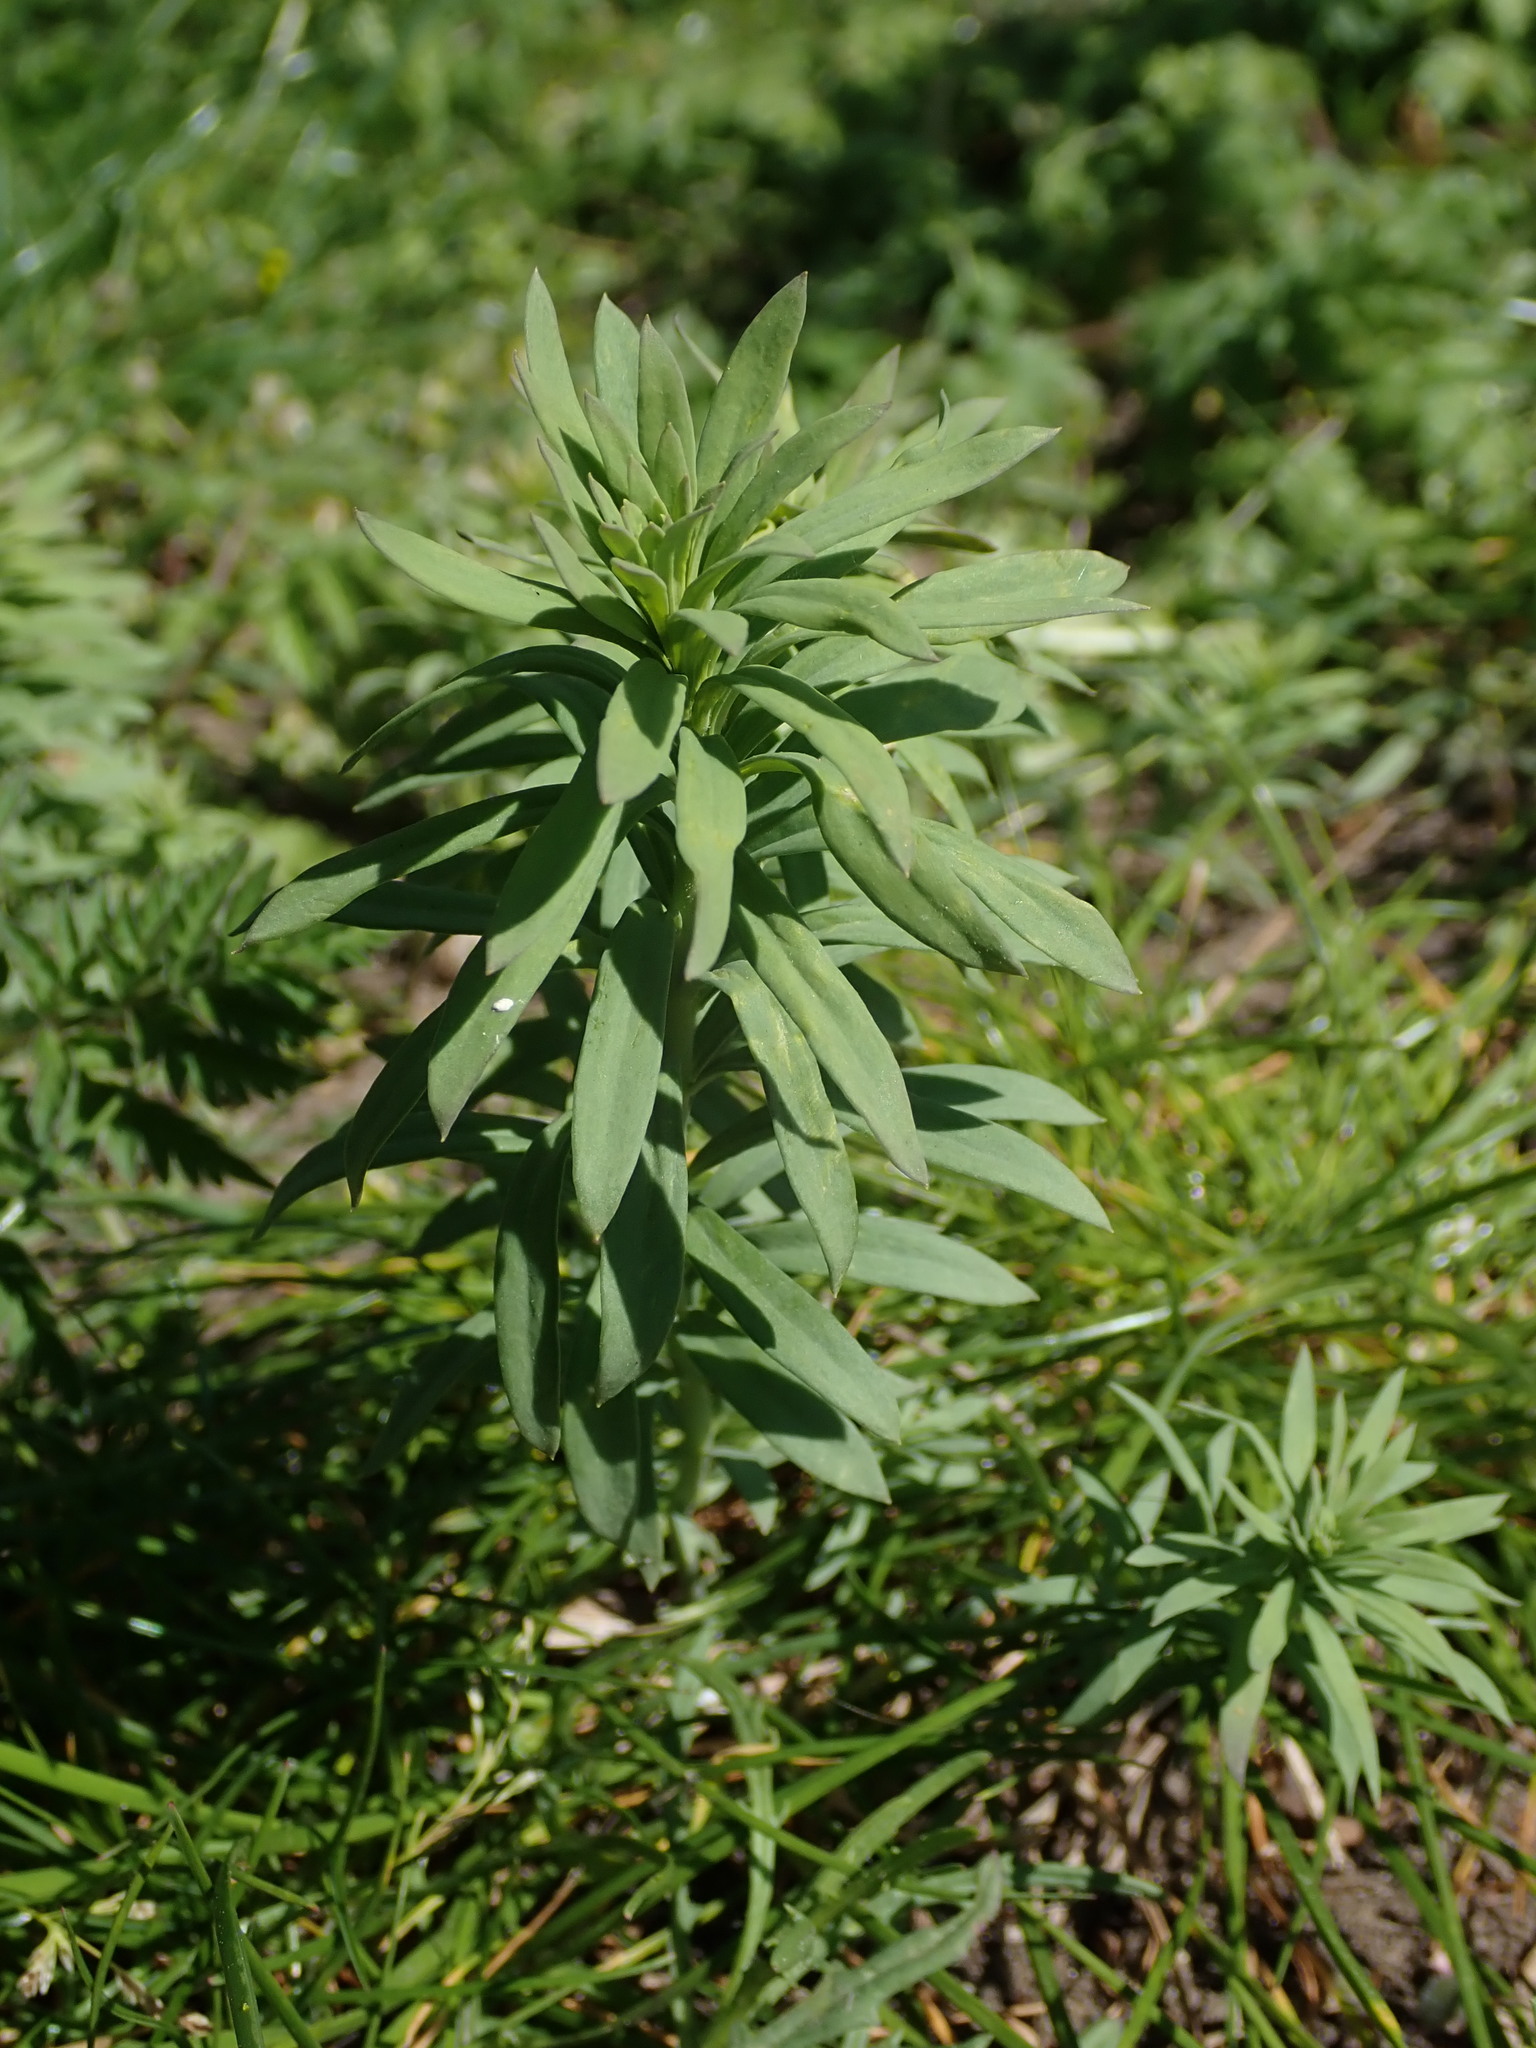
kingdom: Plantae
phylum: Tracheophyta
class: Magnoliopsida
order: Lamiales
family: Plantaginaceae
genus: Linaria
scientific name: Linaria purpurea
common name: Purple toadflax
